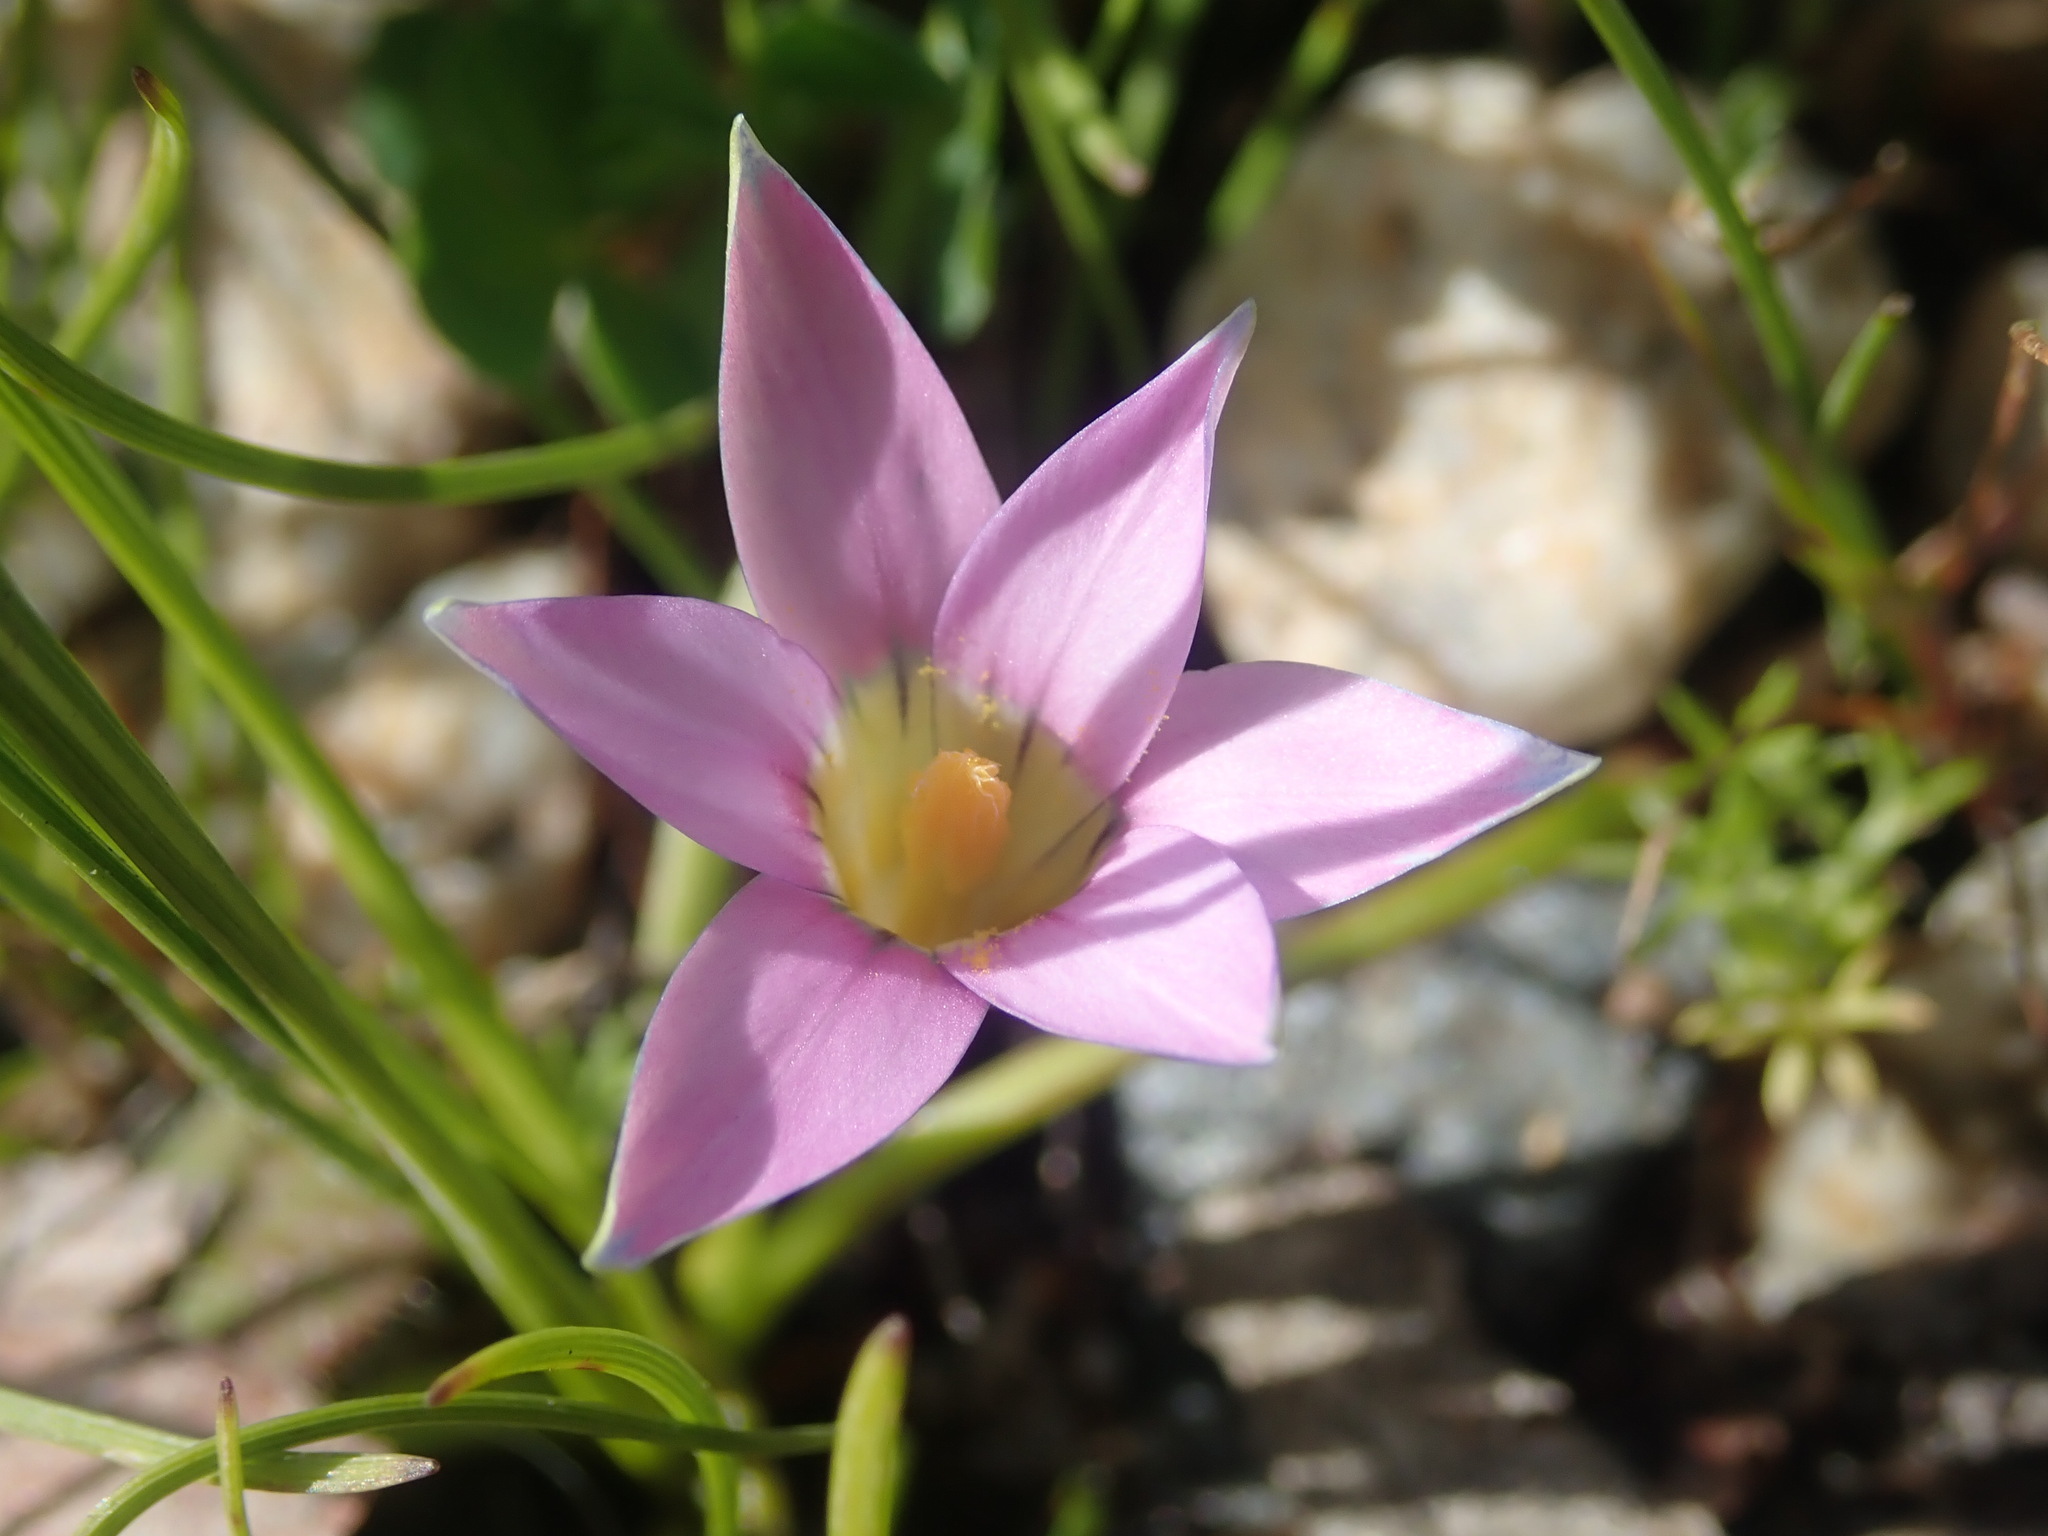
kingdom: Plantae
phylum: Tracheophyta
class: Liliopsida
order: Asparagales
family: Iridaceae
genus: Romulea
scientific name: Romulea rosea
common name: Oniongrass
